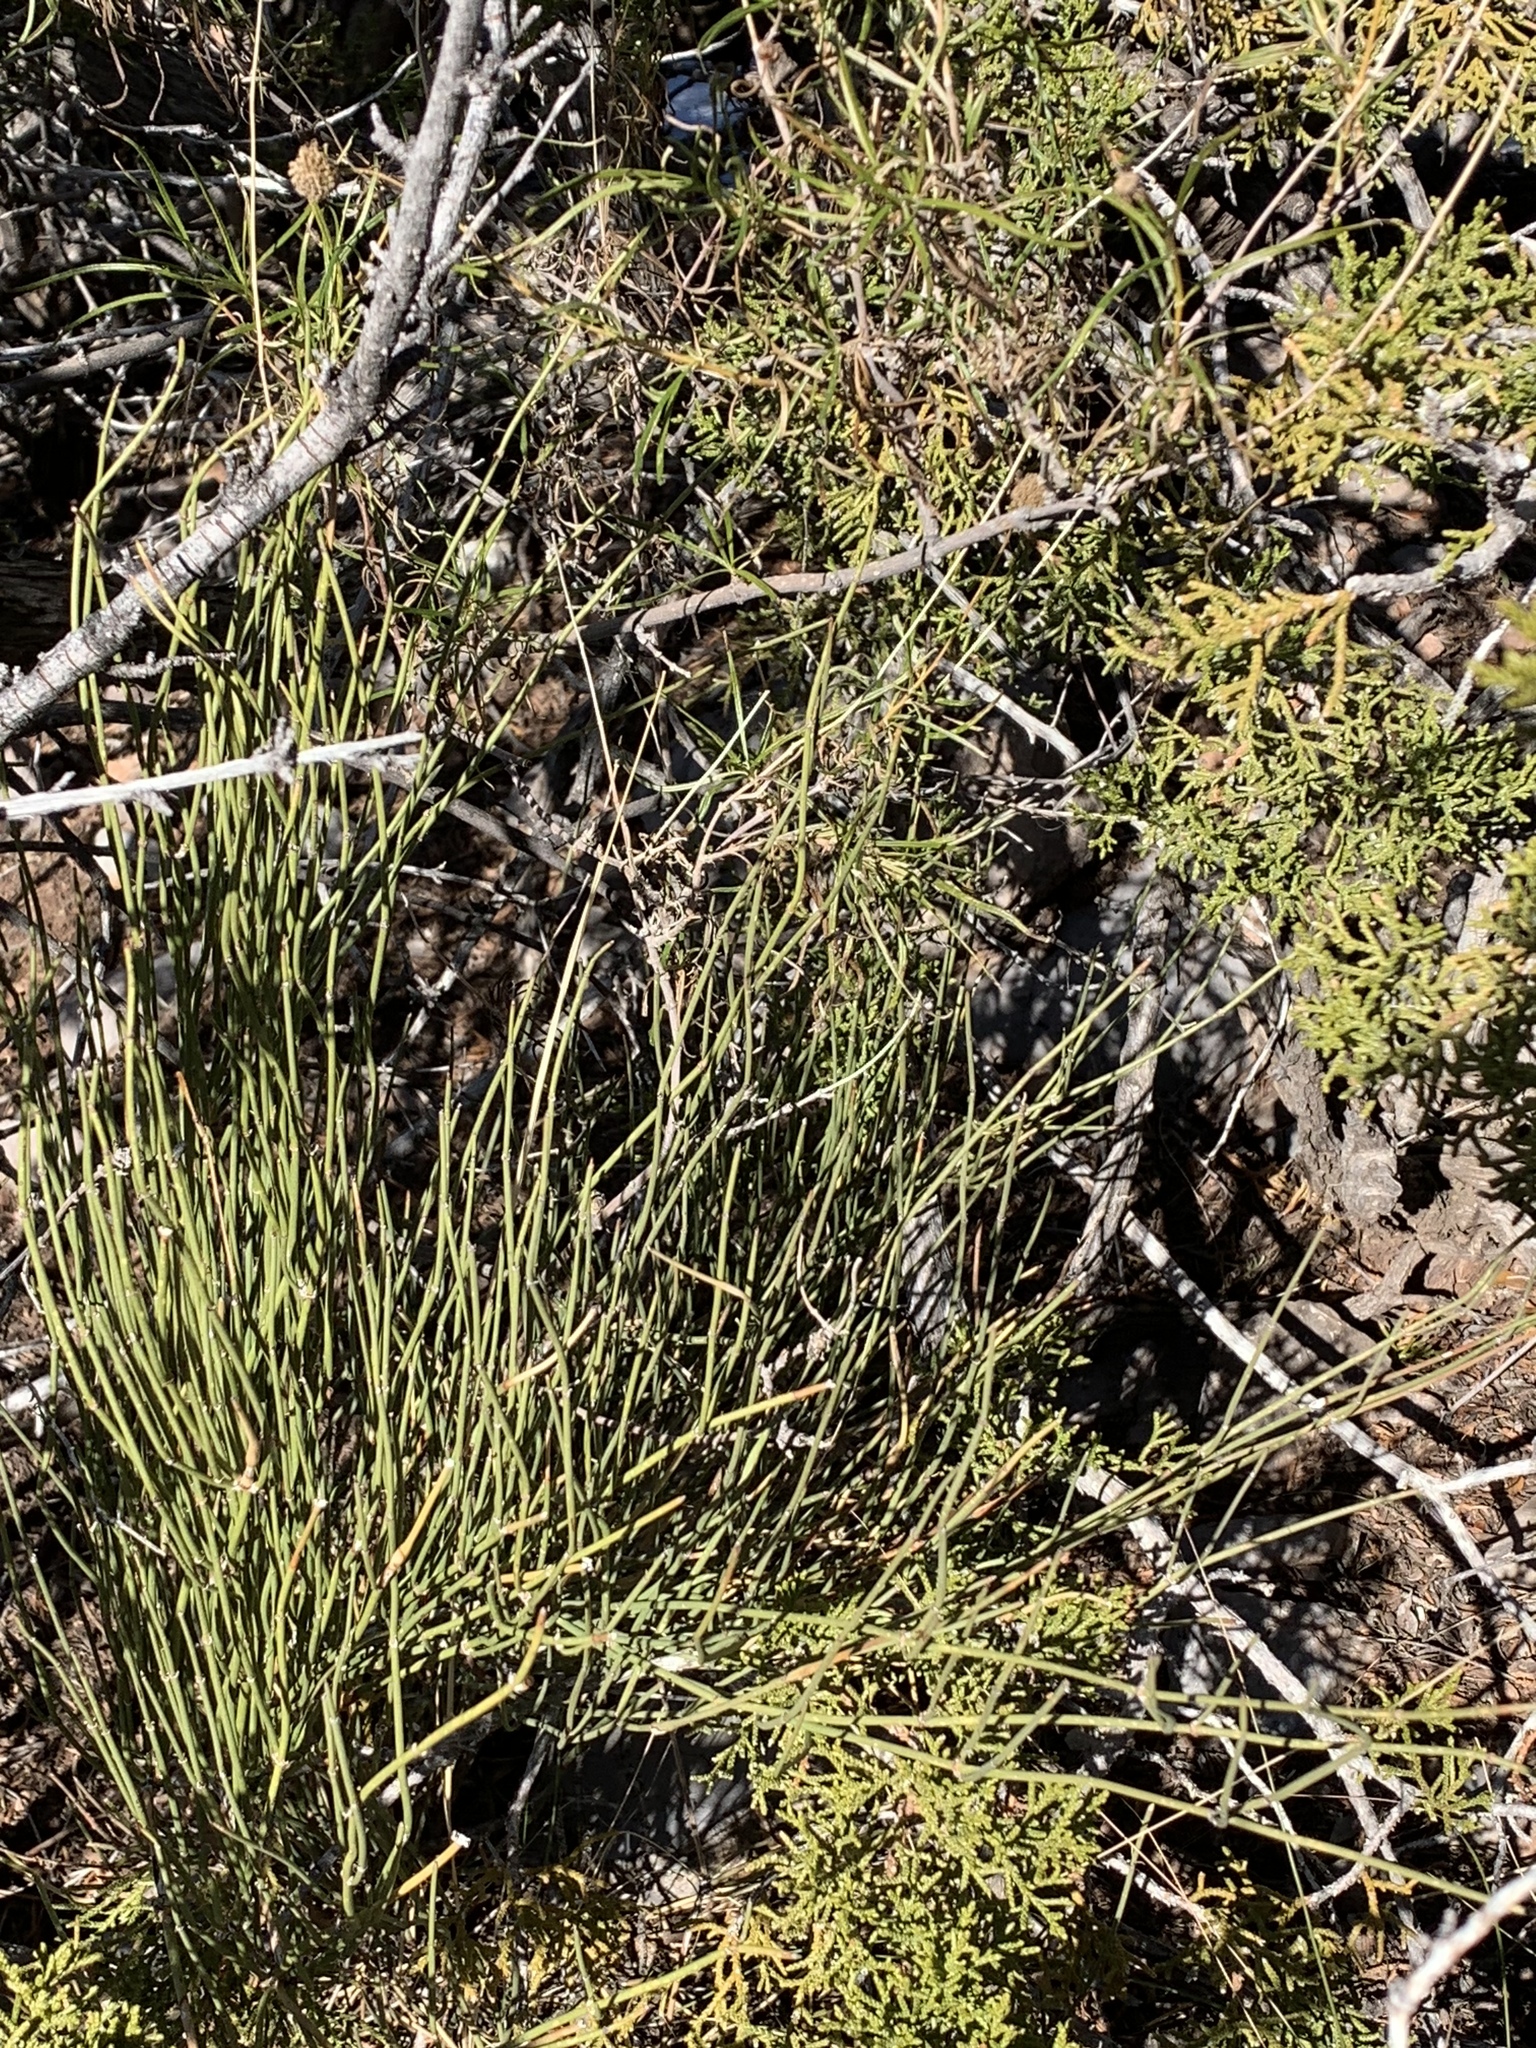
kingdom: Plantae
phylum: Tracheophyta
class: Gnetopsida
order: Ephedrales
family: Ephedraceae
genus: Ephedra
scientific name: Ephedra viridis
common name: Green ephedra
